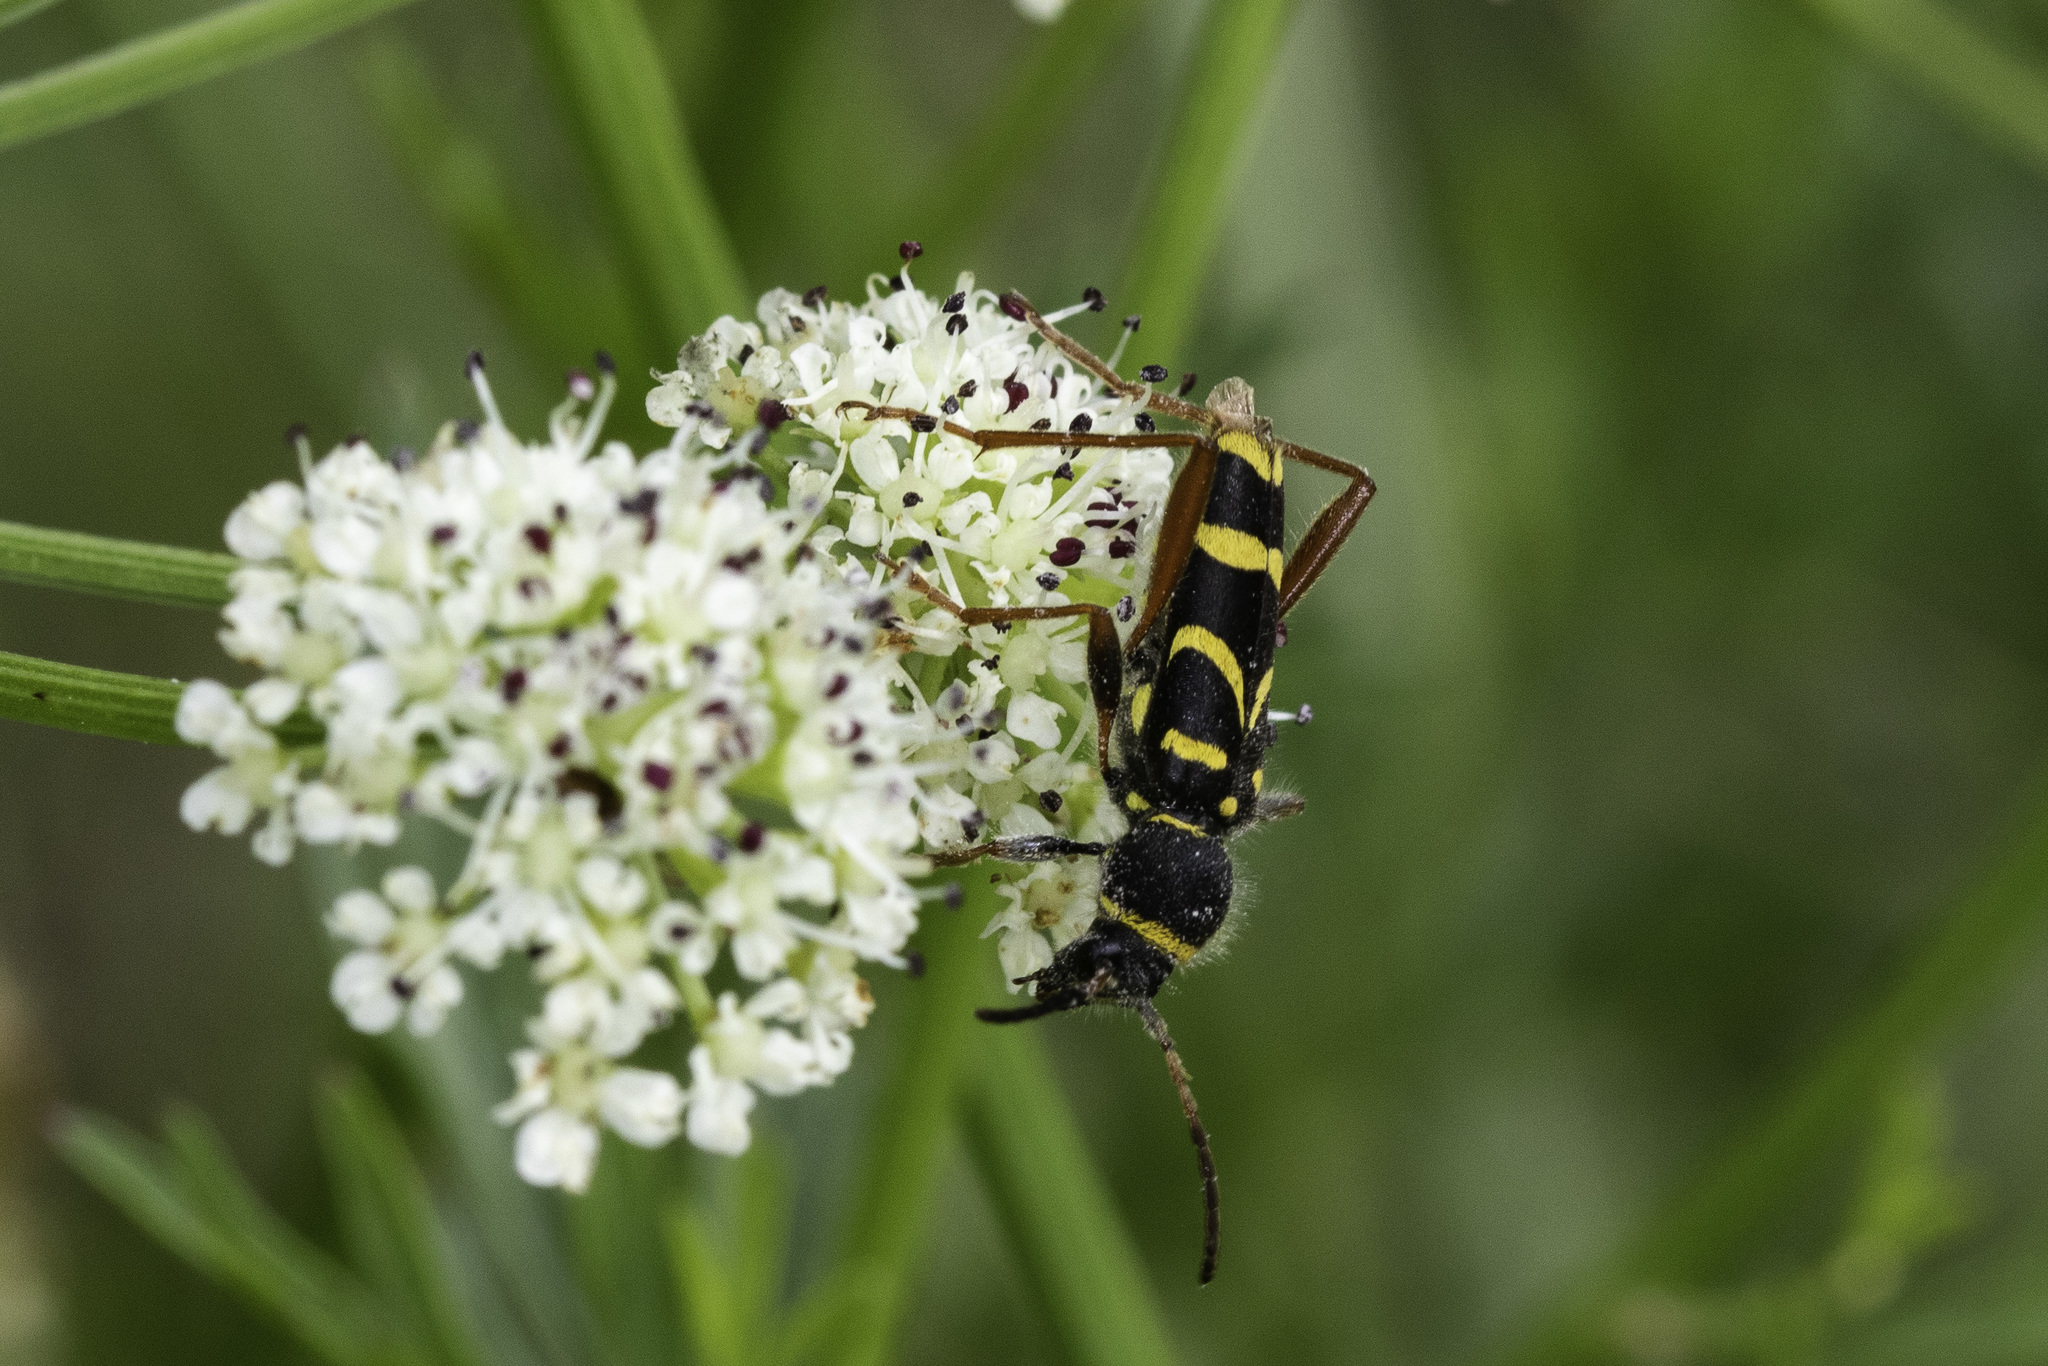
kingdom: Animalia
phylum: Arthropoda
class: Insecta
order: Coleoptera
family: Cerambycidae
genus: Clytus
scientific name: Clytus arietis
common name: Wasp beetle
